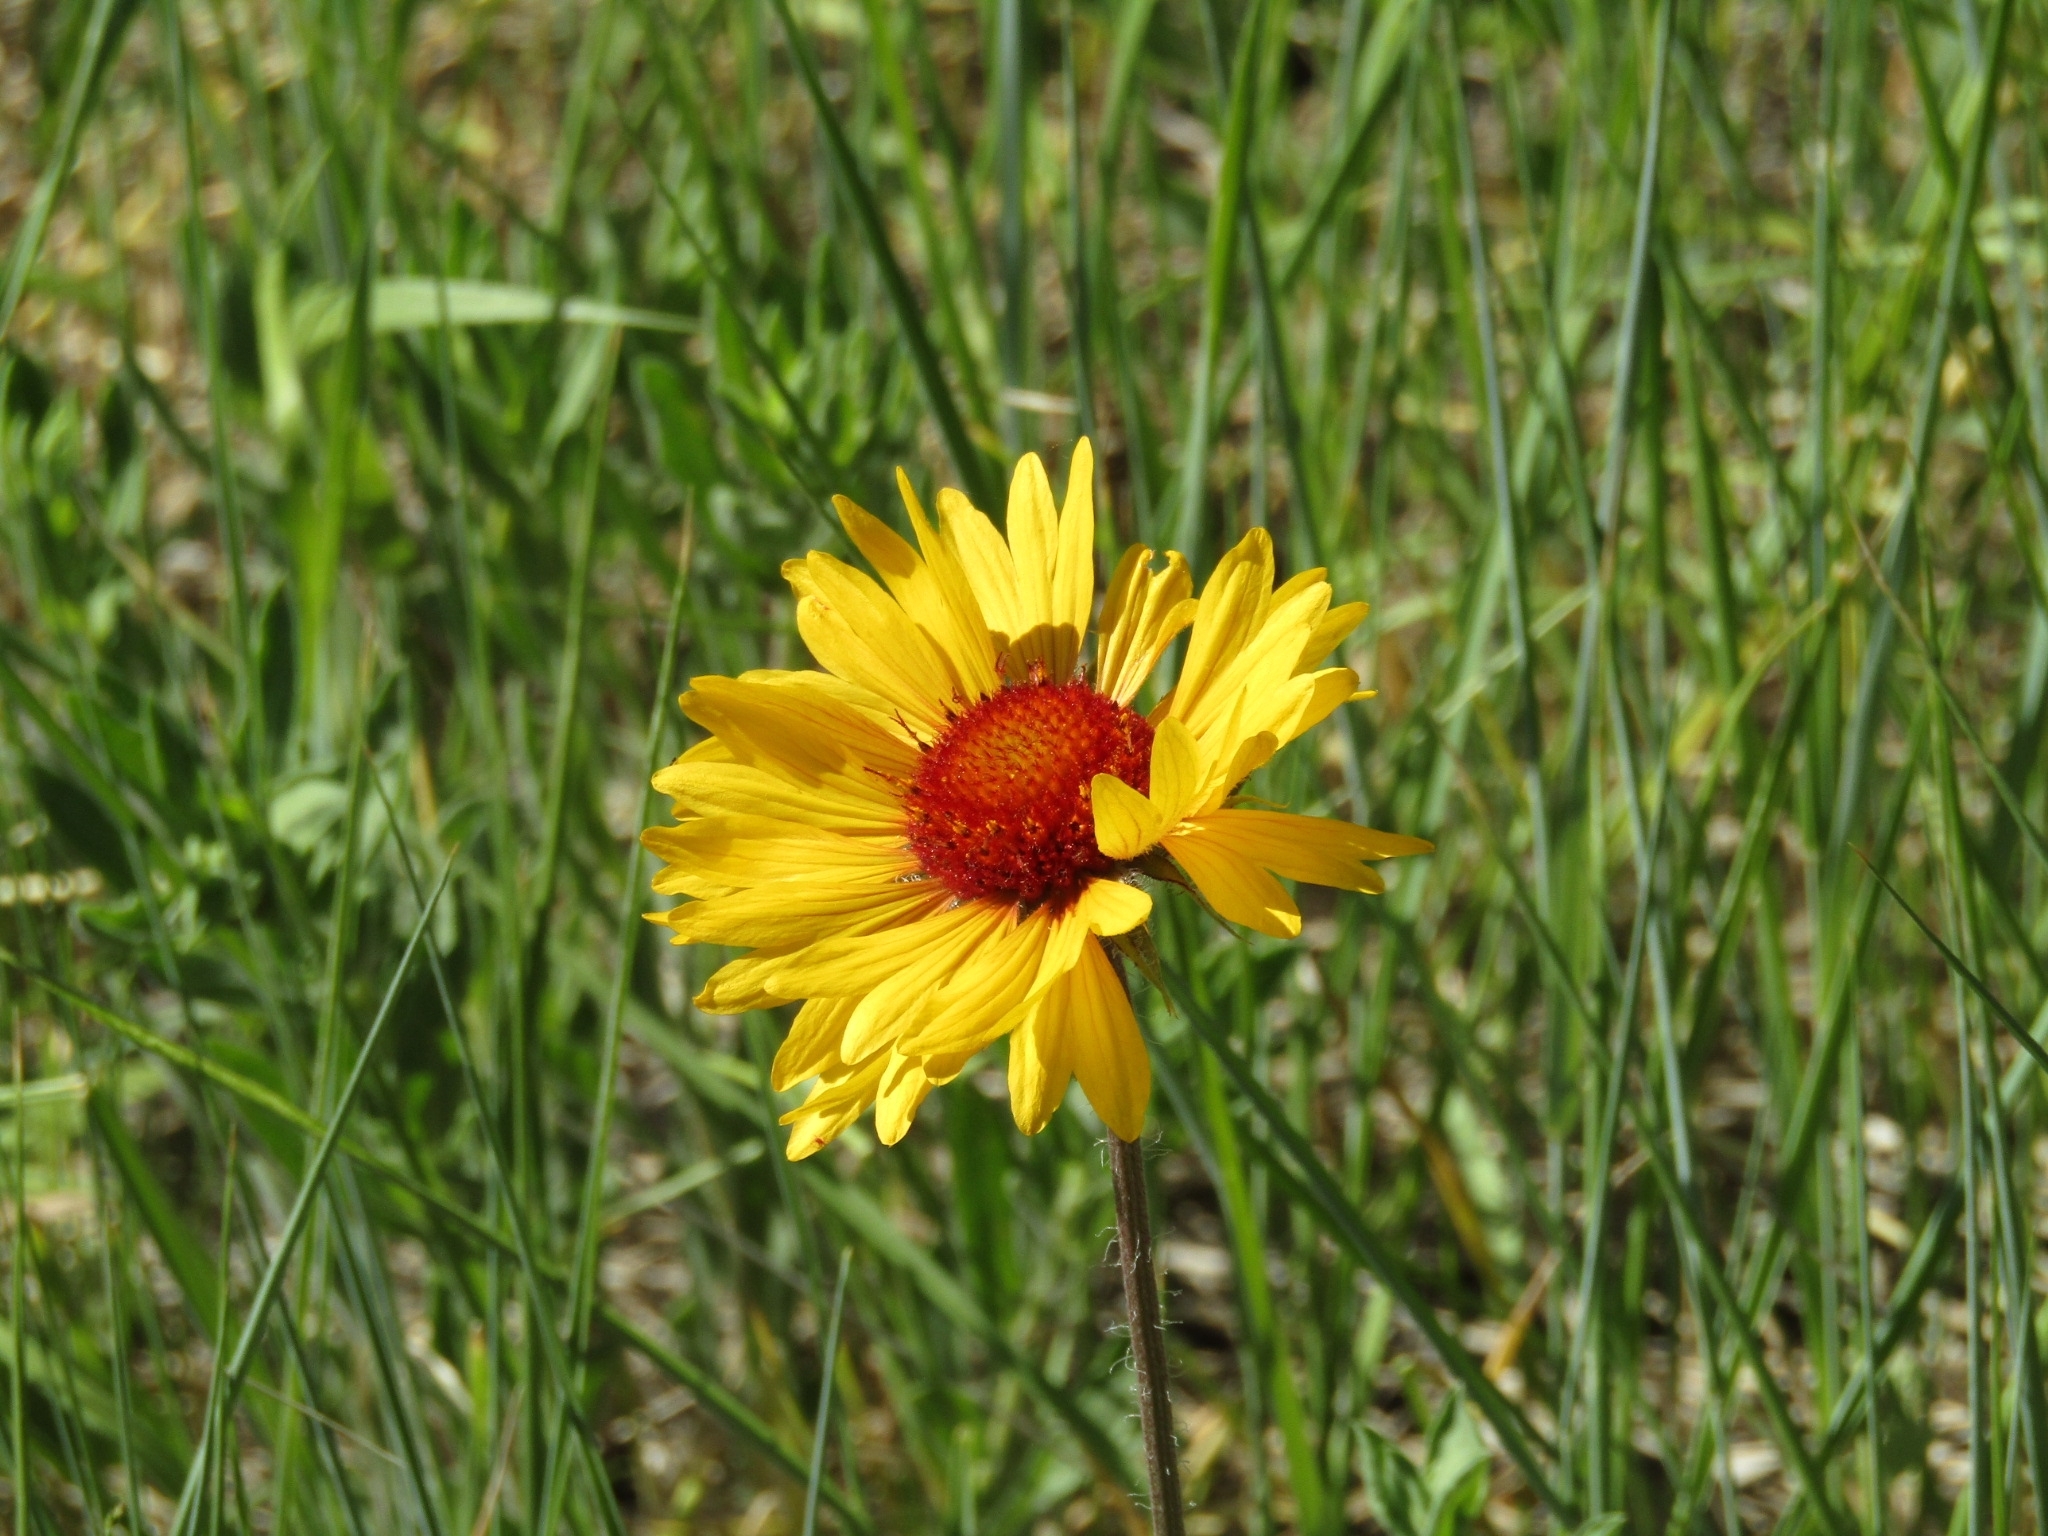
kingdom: Plantae
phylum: Tracheophyta
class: Magnoliopsida
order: Asterales
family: Asteraceae
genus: Gaillardia
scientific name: Gaillardia aristata
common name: Blanket-flower
